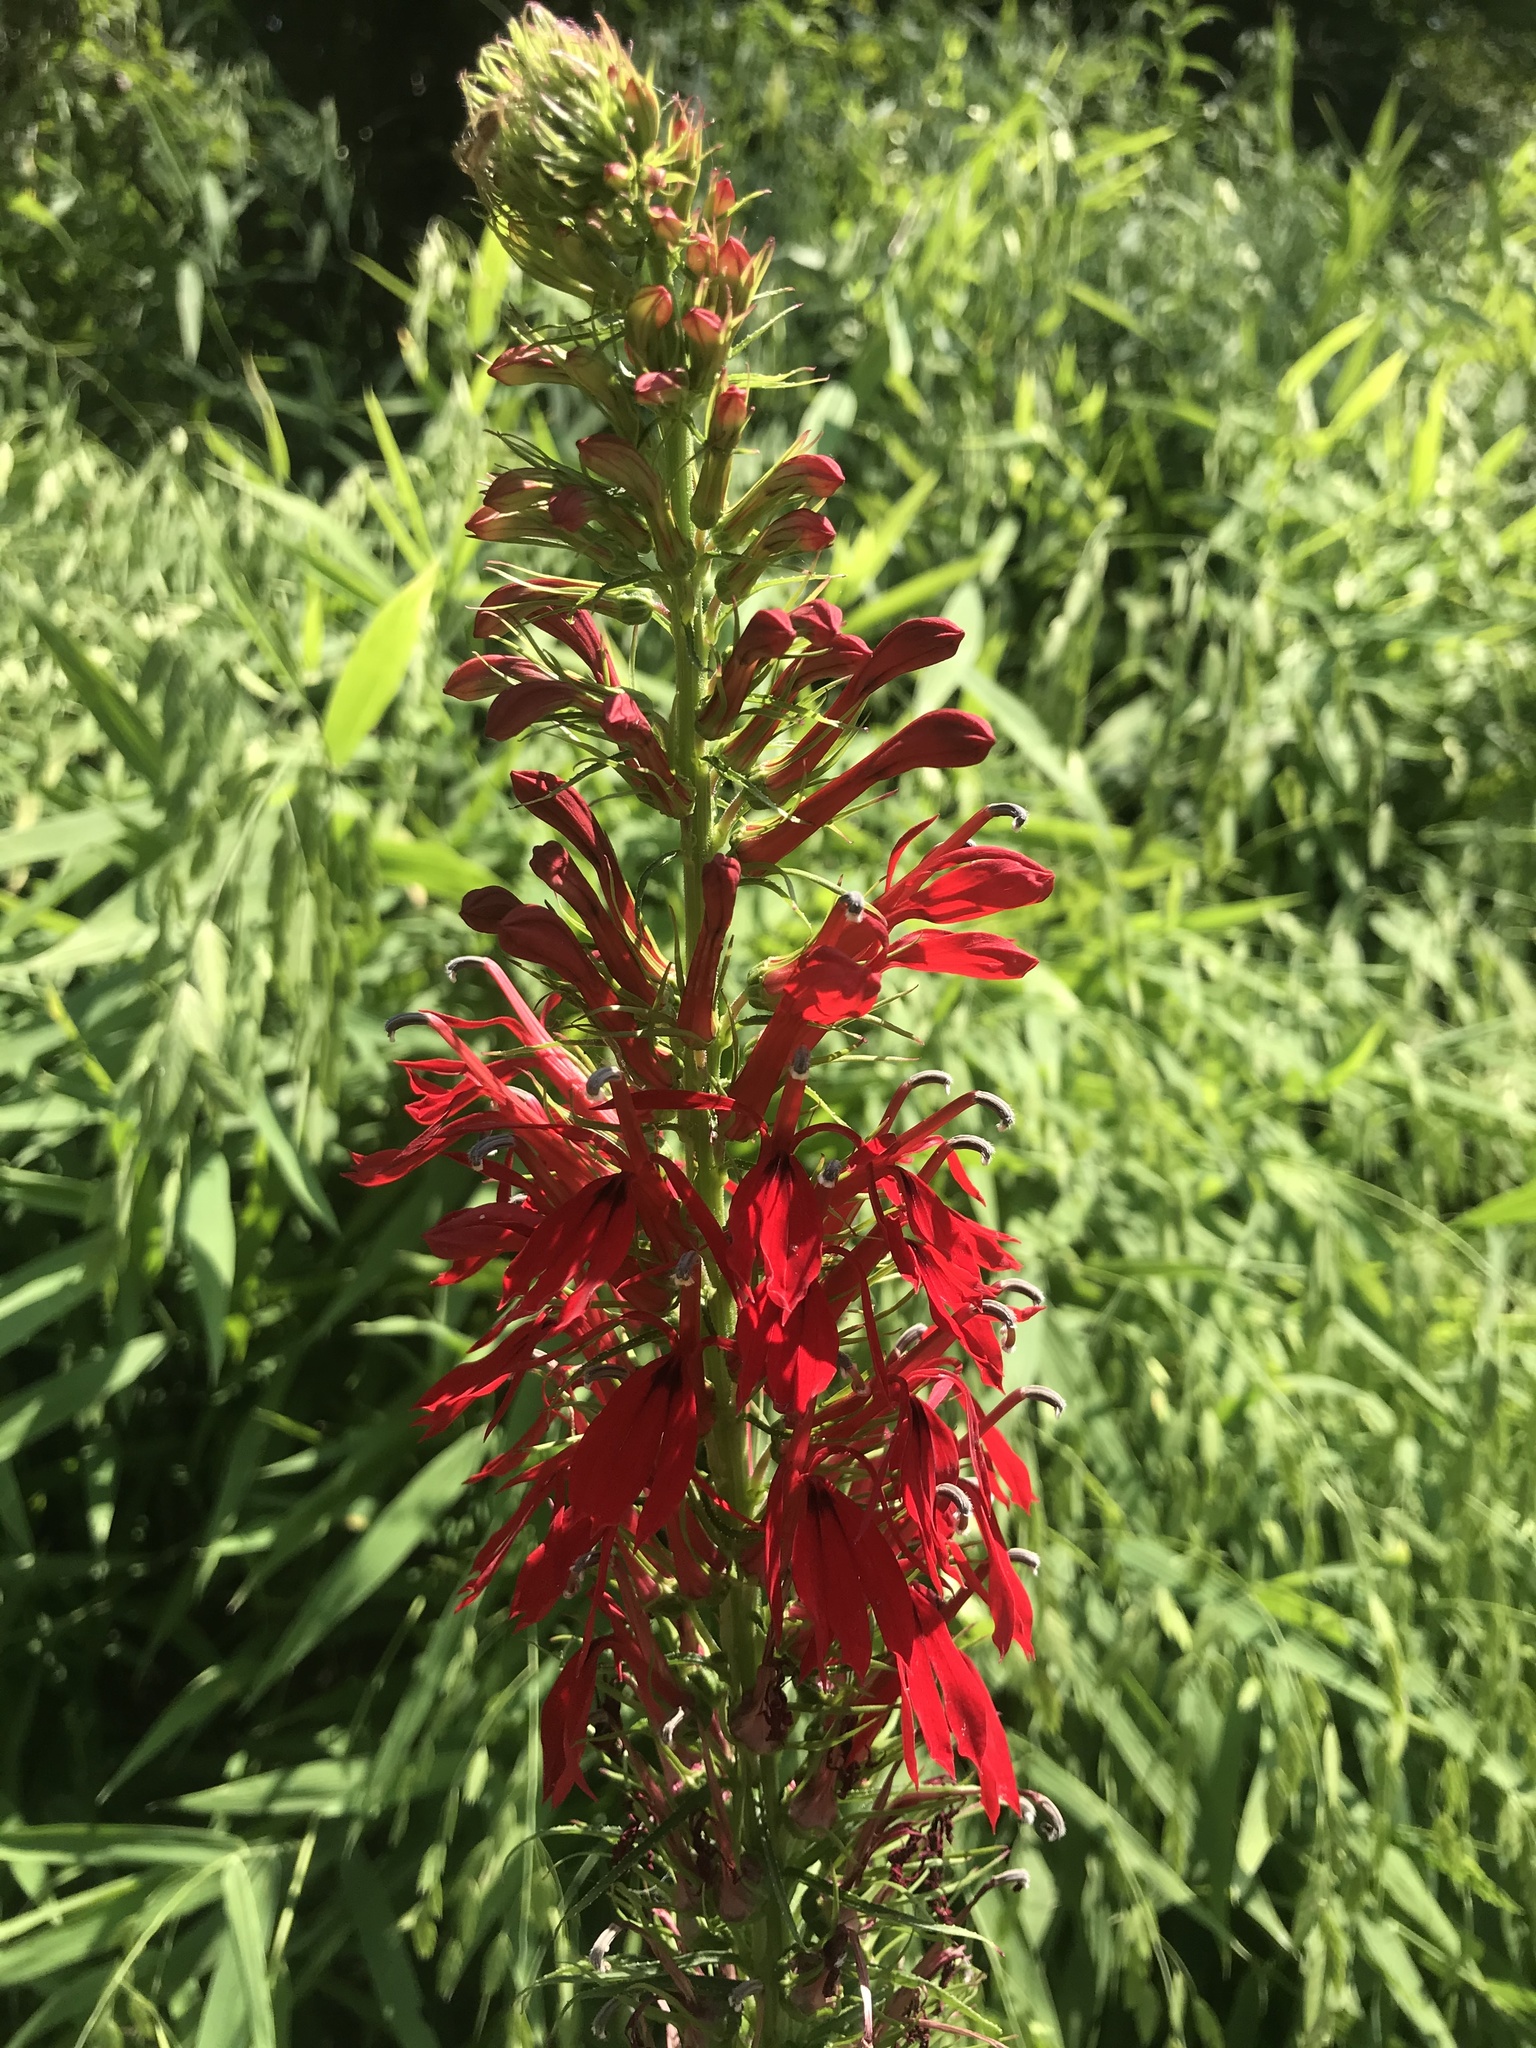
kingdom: Plantae
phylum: Tracheophyta
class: Magnoliopsida
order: Asterales
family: Campanulaceae
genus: Lobelia
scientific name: Lobelia cardinalis
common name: Cardinal flower
